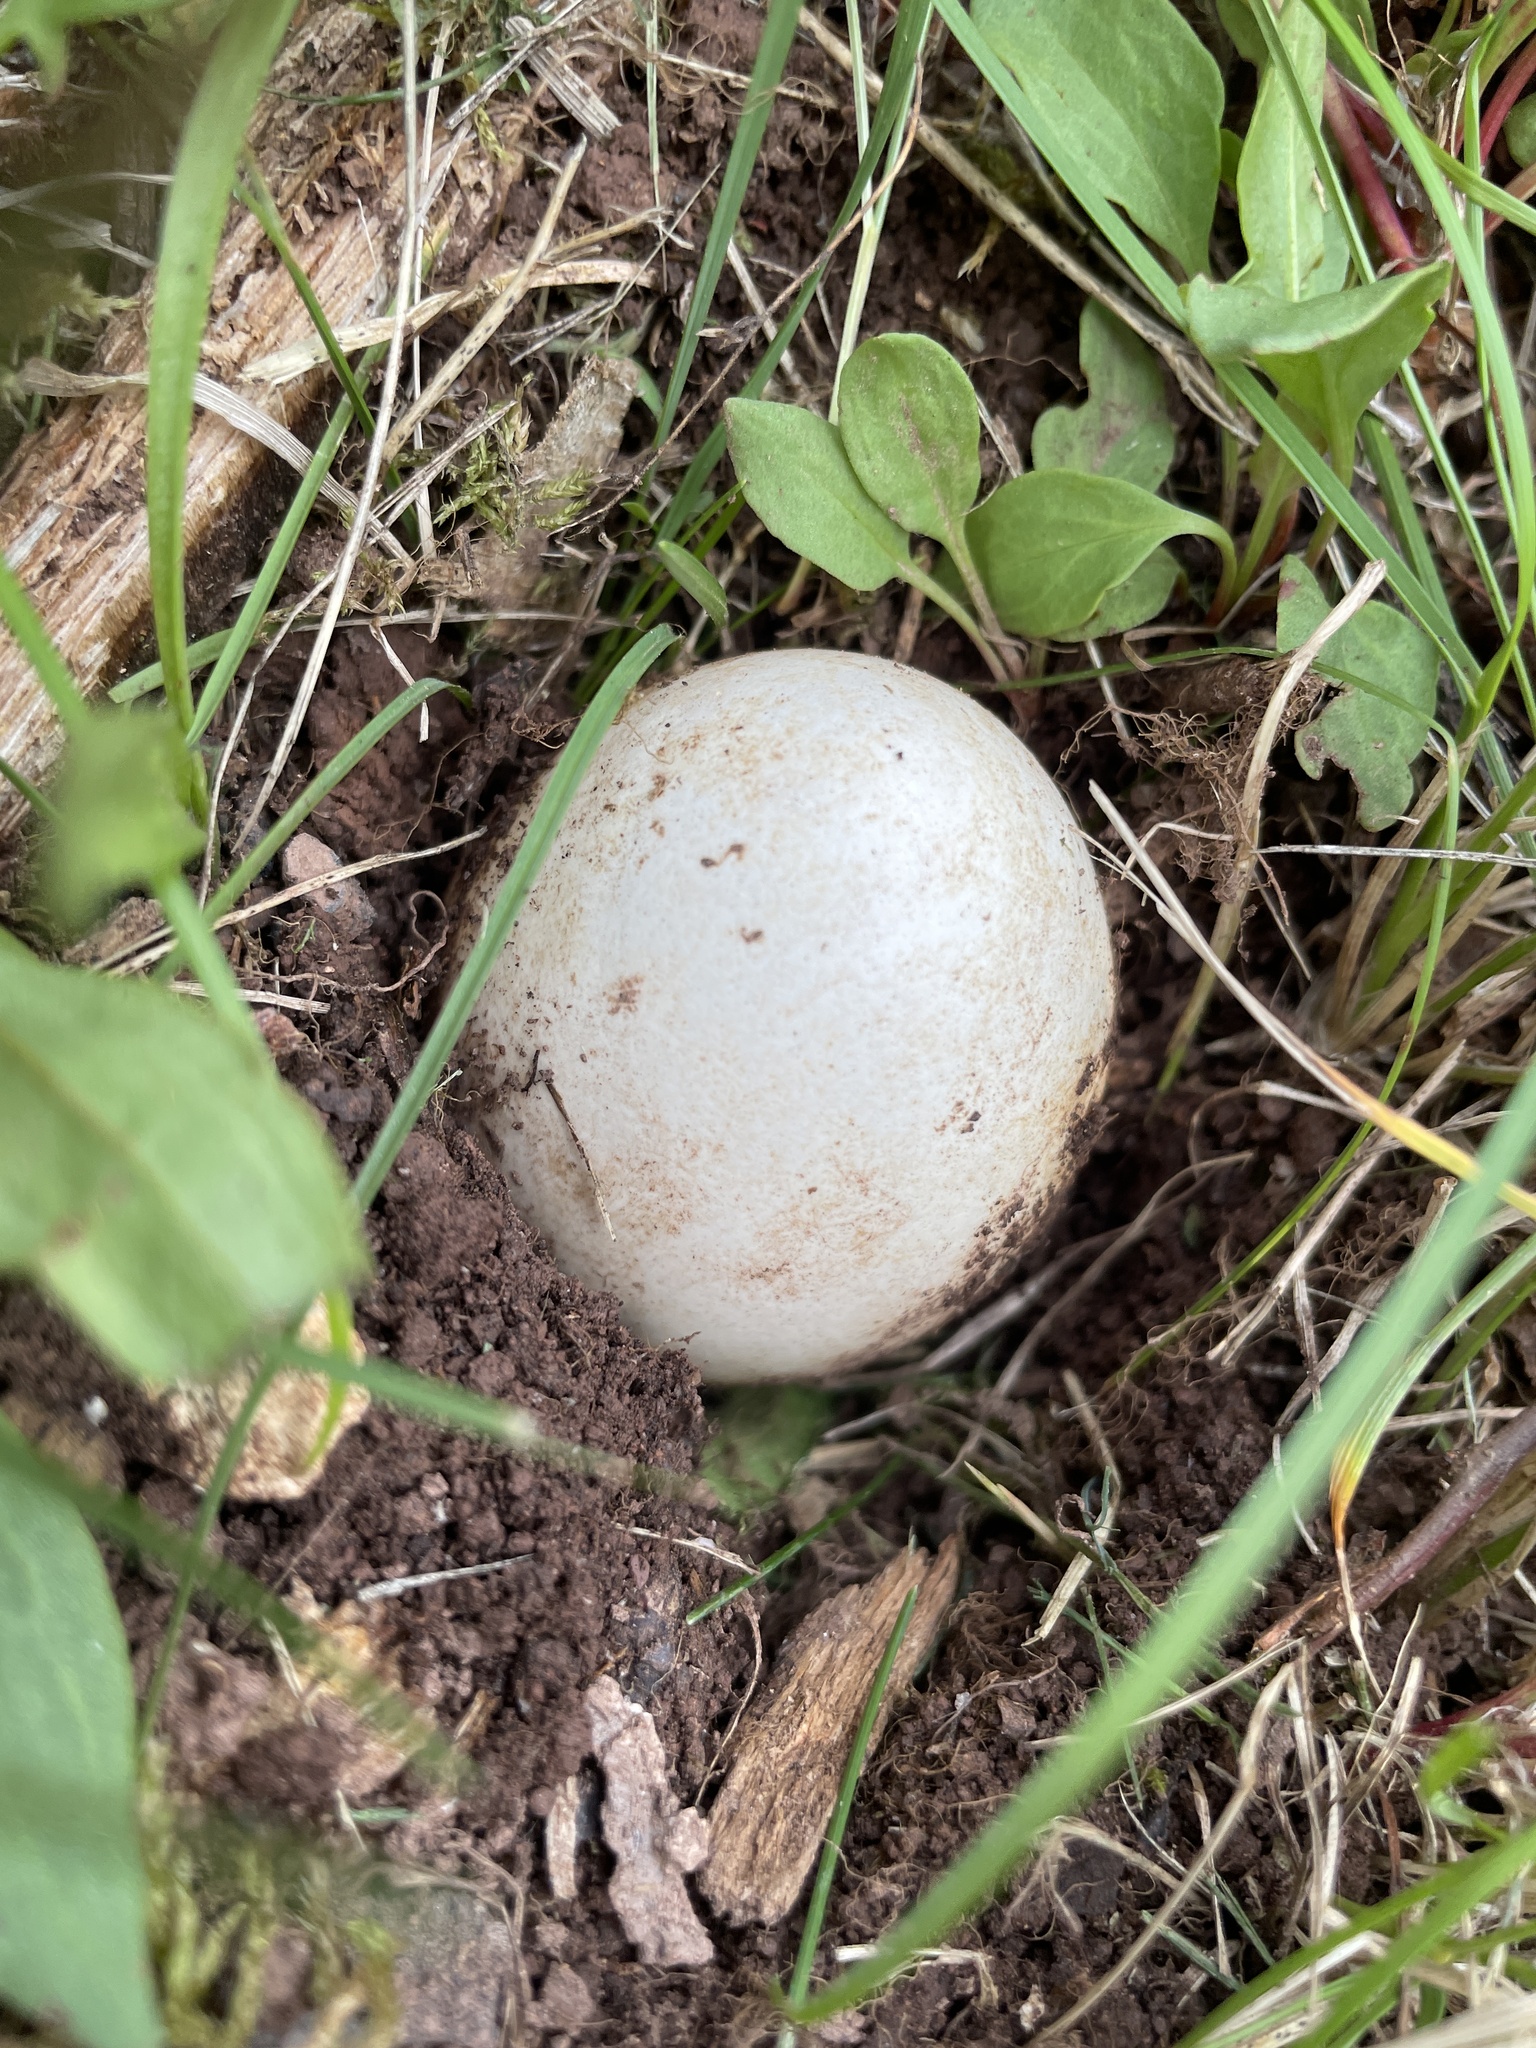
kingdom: Animalia
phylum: Chordata
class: Aves
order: Galliformes
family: Phasianidae
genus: Meleagris
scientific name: Meleagris gallopavo
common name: Wild turkey
